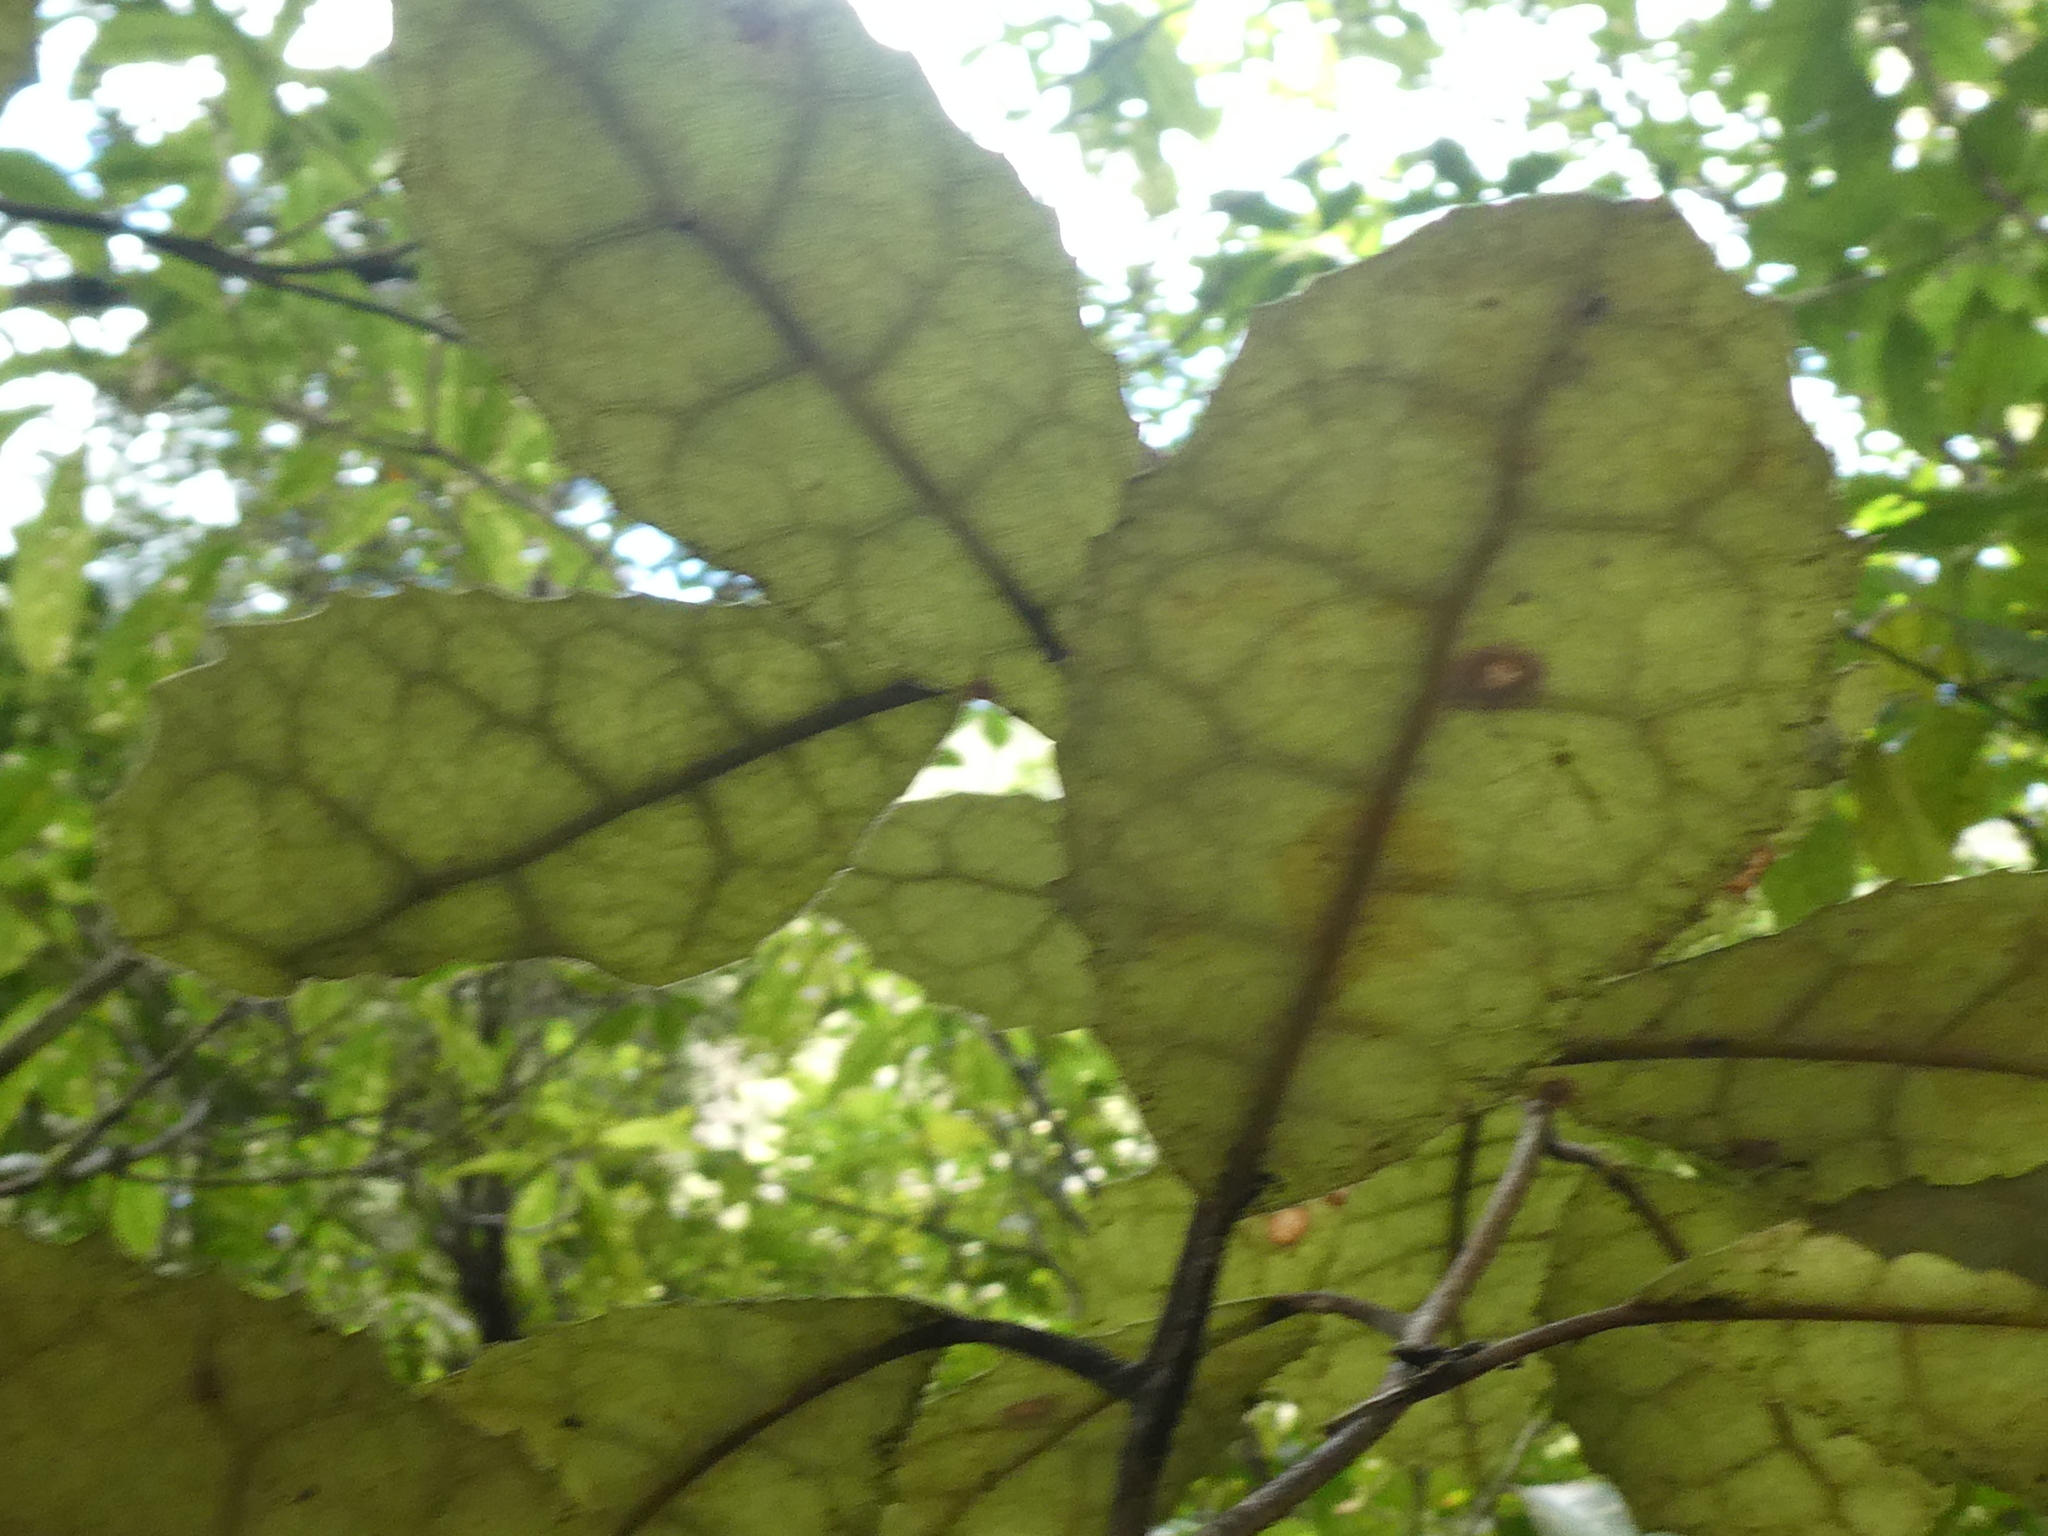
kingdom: Plantae
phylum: Tracheophyta
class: Magnoliopsida
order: Asterales
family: Asteraceae
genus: Olearia
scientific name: Olearia rani
